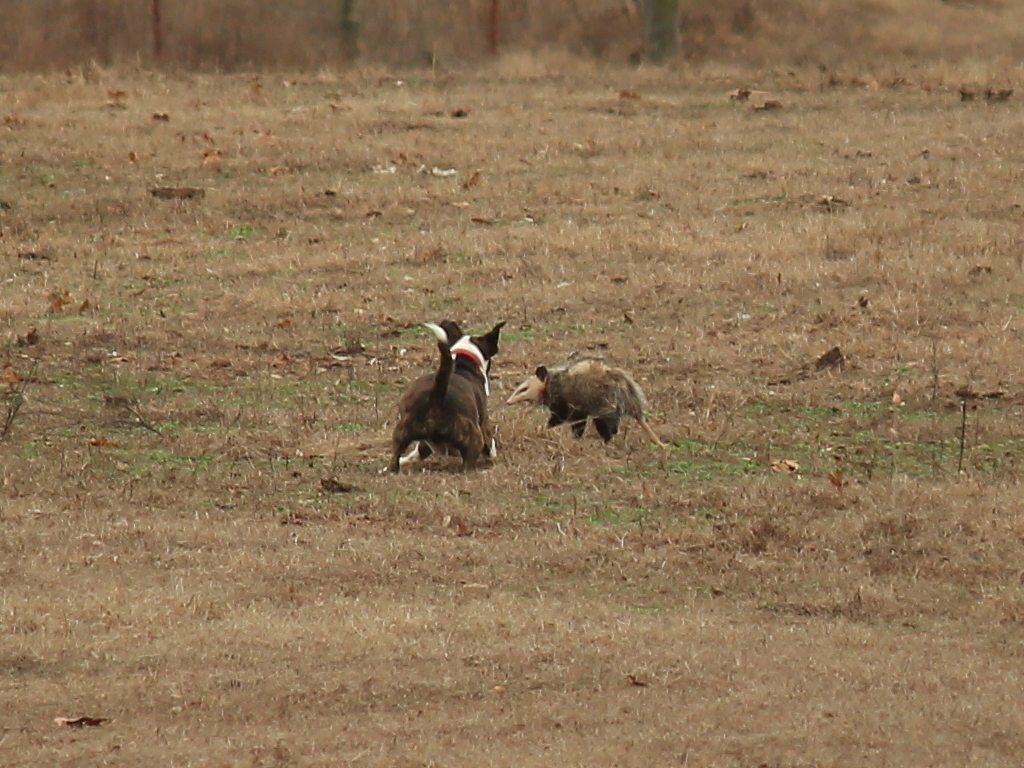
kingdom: Animalia
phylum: Chordata
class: Mammalia
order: Didelphimorphia
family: Didelphidae
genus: Didelphis
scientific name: Didelphis virginiana
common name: Virginia opossum
